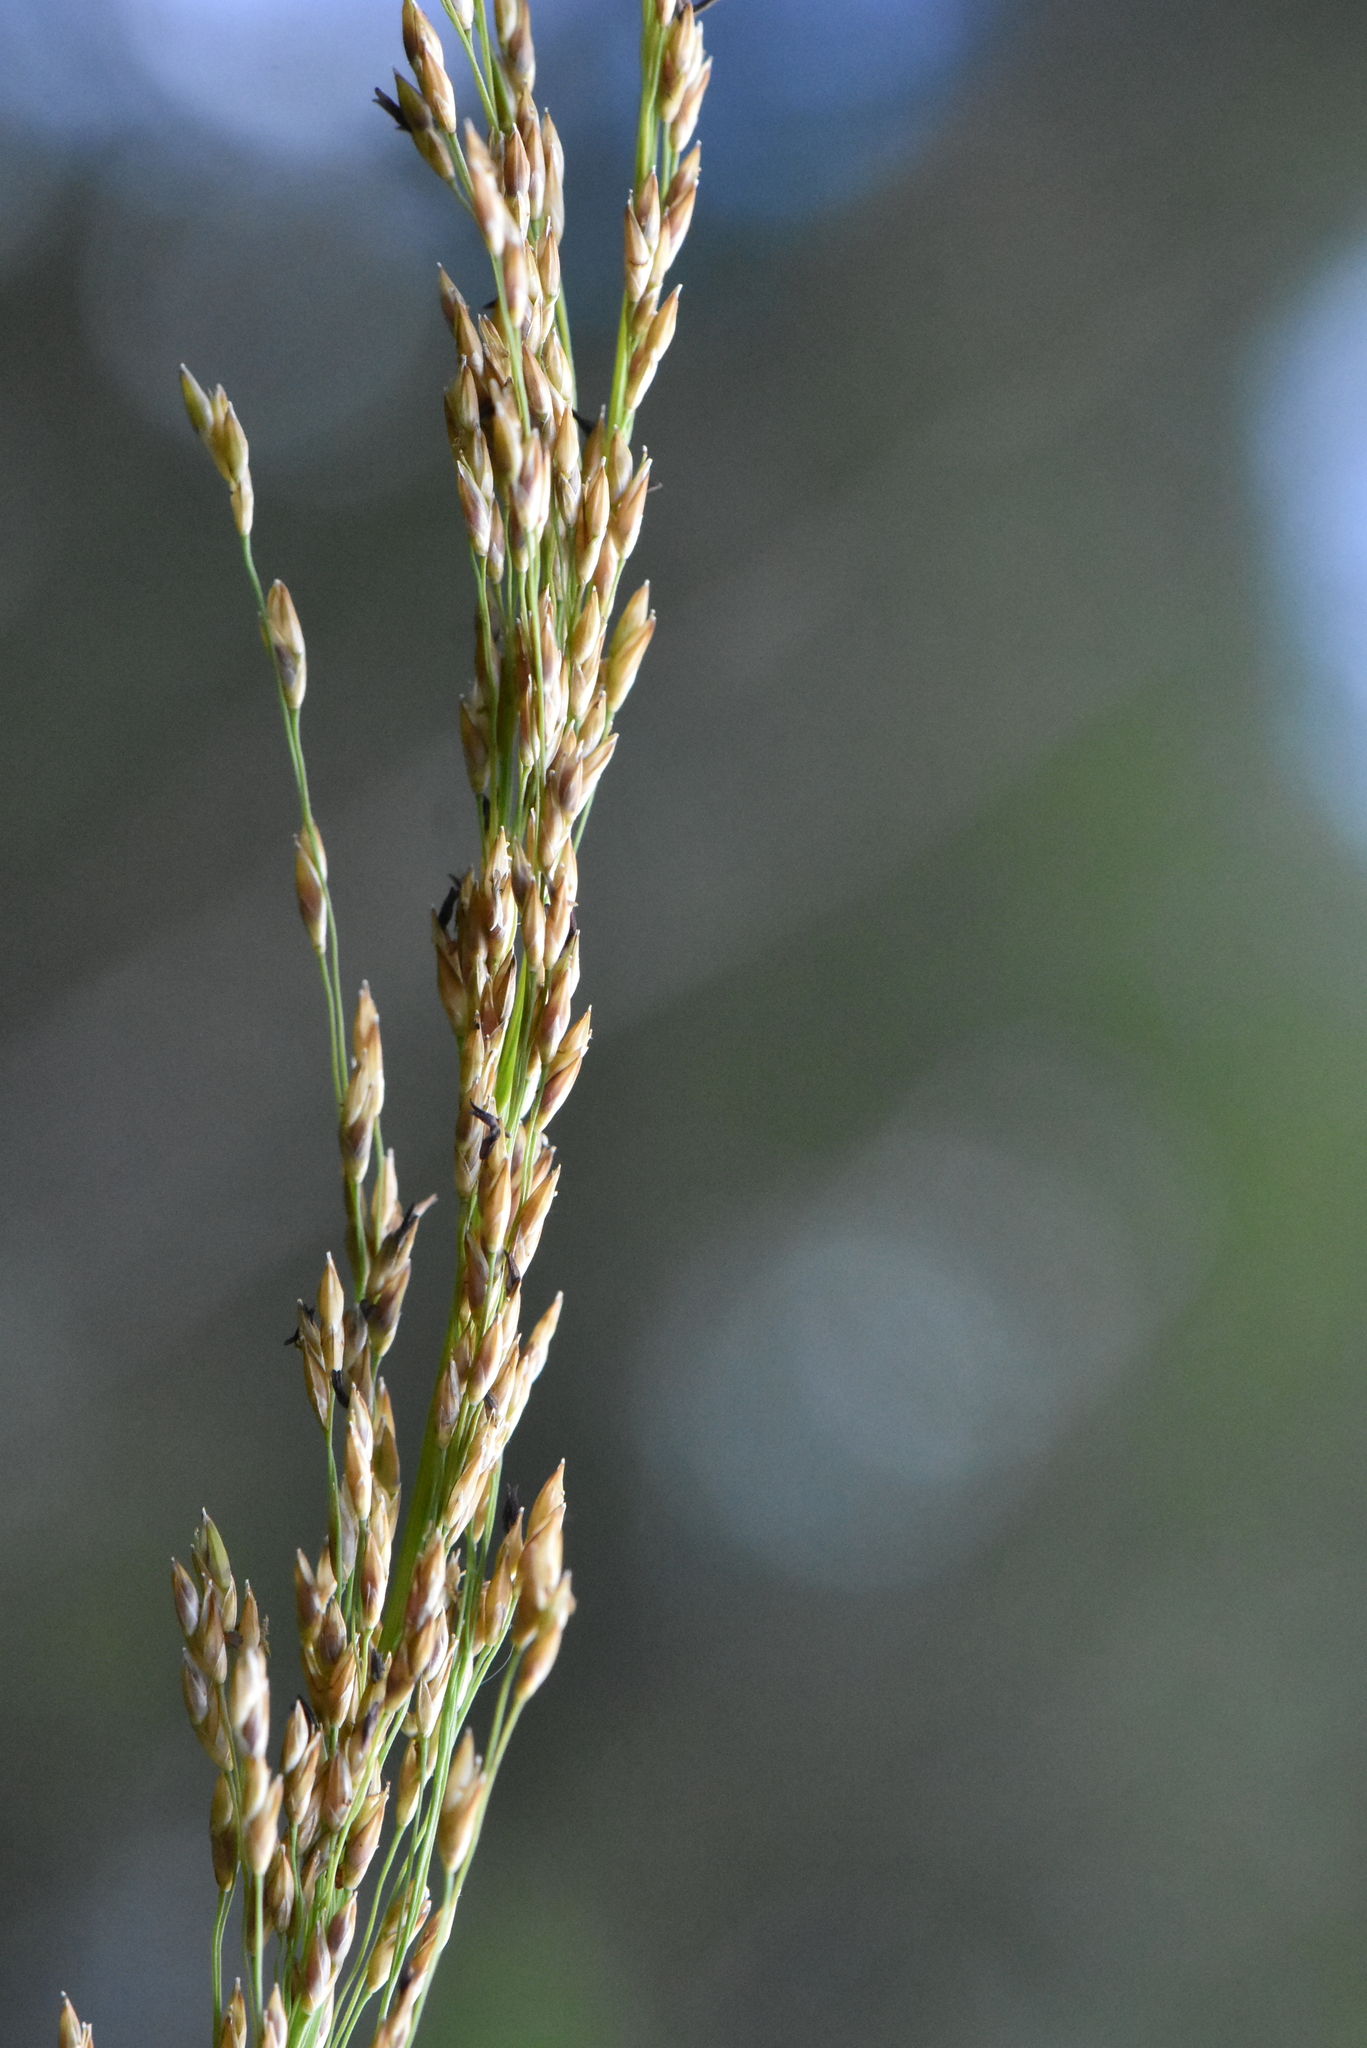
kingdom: Plantae
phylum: Tracheophyta
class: Liliopsida
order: Poales
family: Poaceae
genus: Molinia
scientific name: Molinia caerulea
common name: Purple moor-grass
